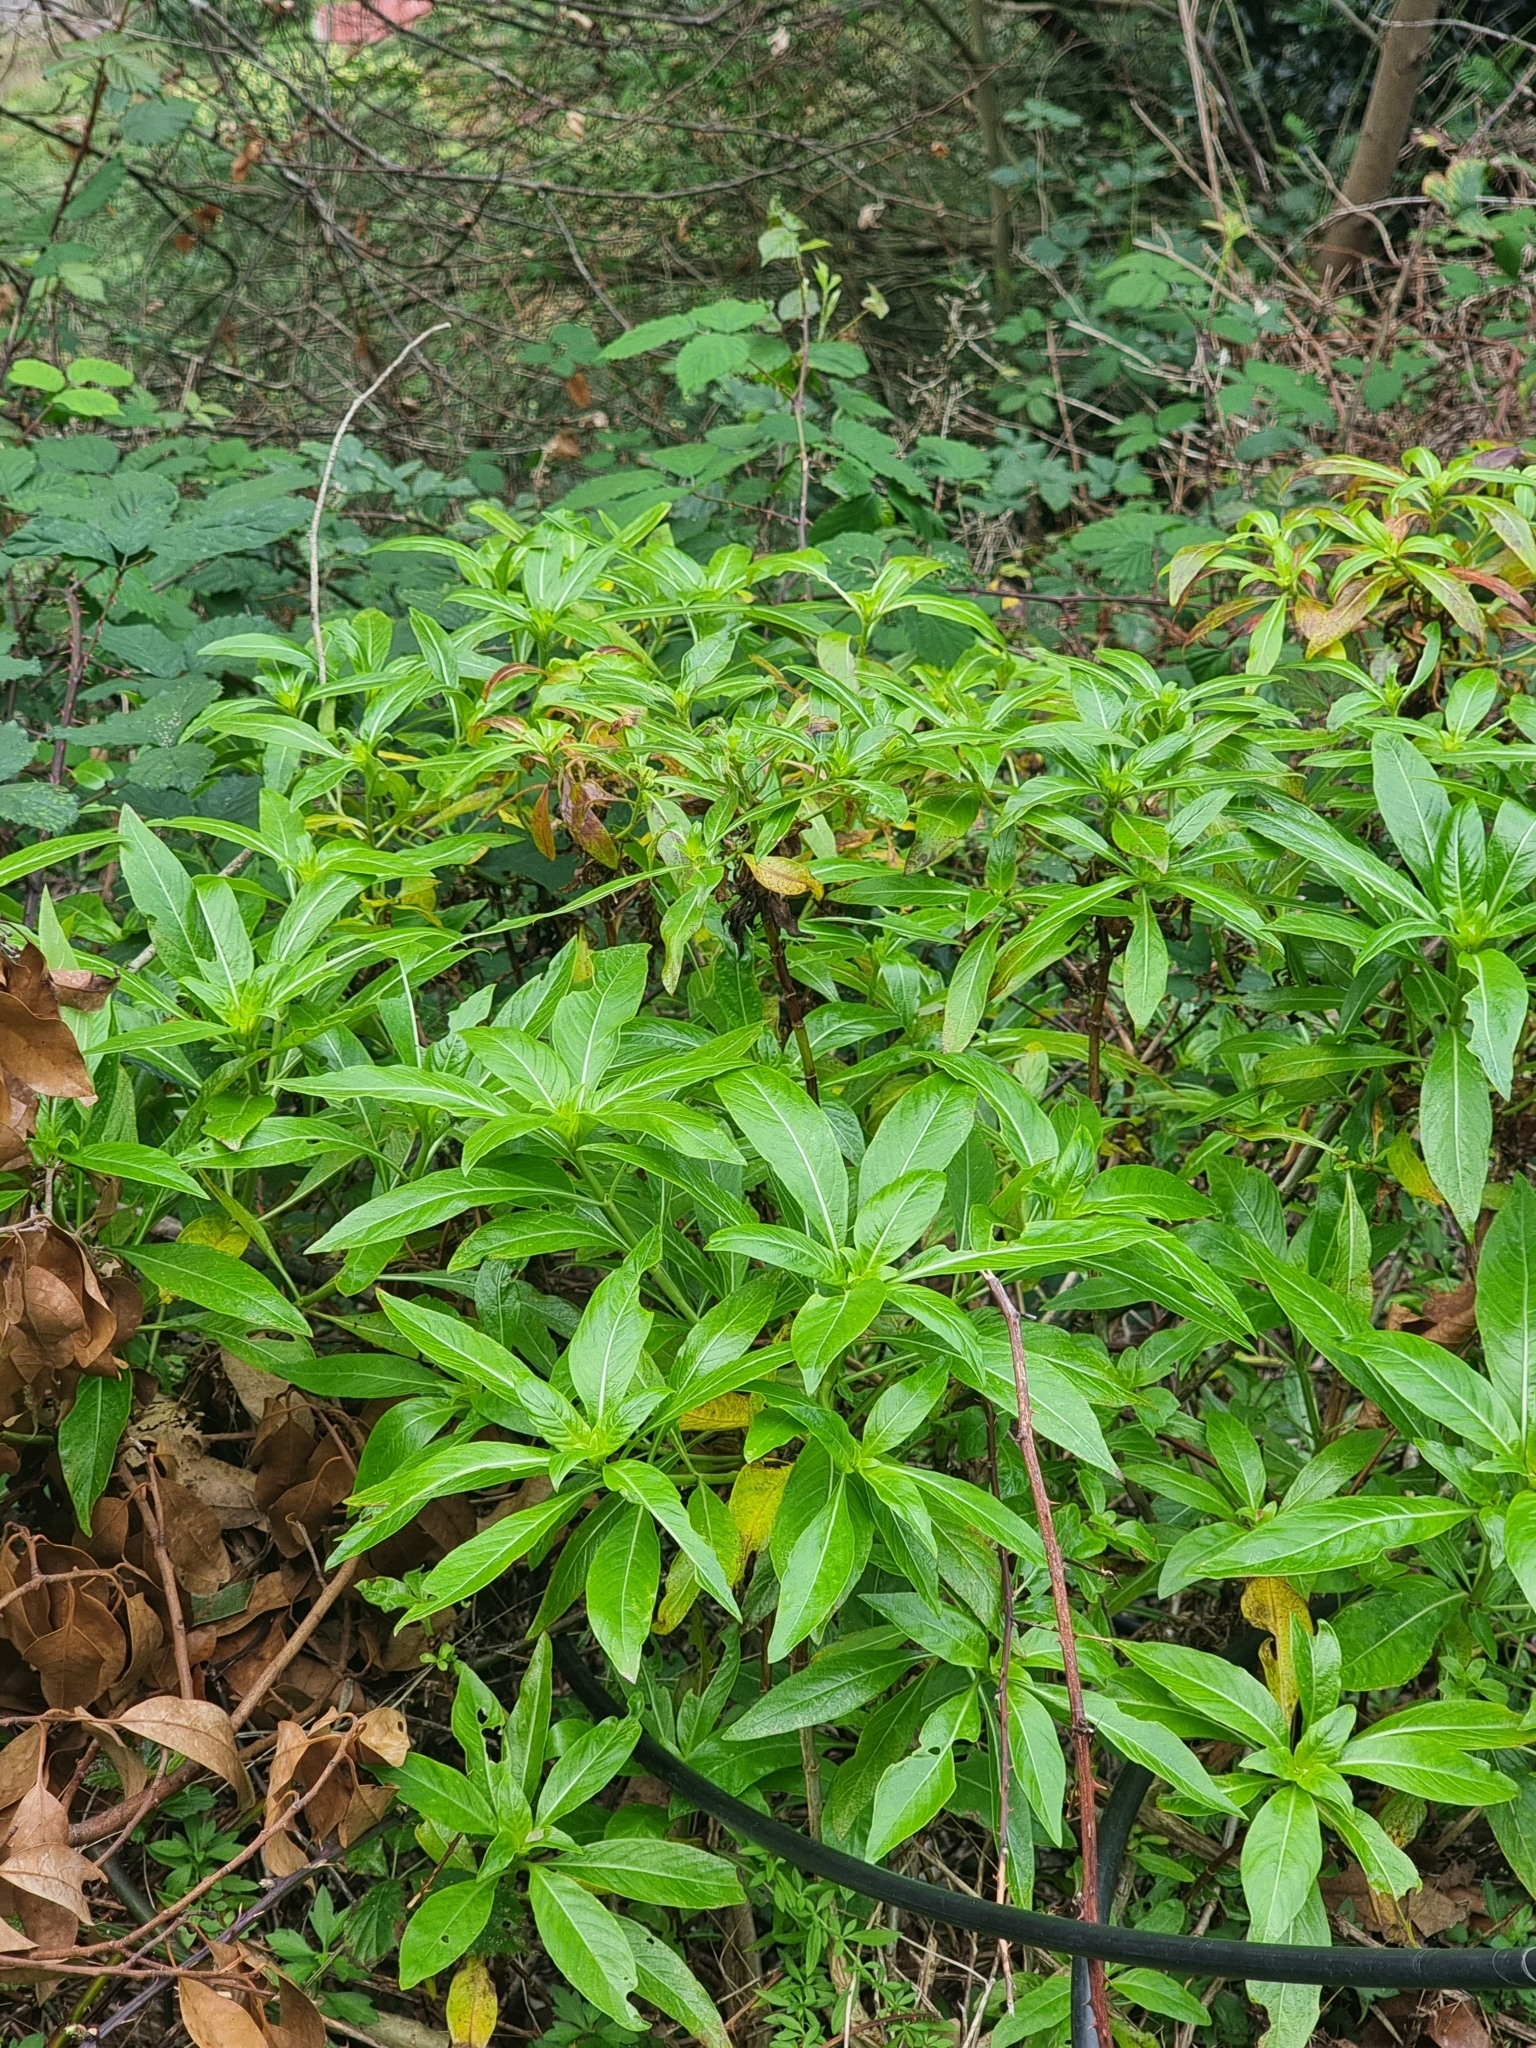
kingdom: Plantae
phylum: Tracheophyta
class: Magnoliopsida
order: Gentianales
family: Rubiaceae
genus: Phyllis
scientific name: Phyllis nobla
